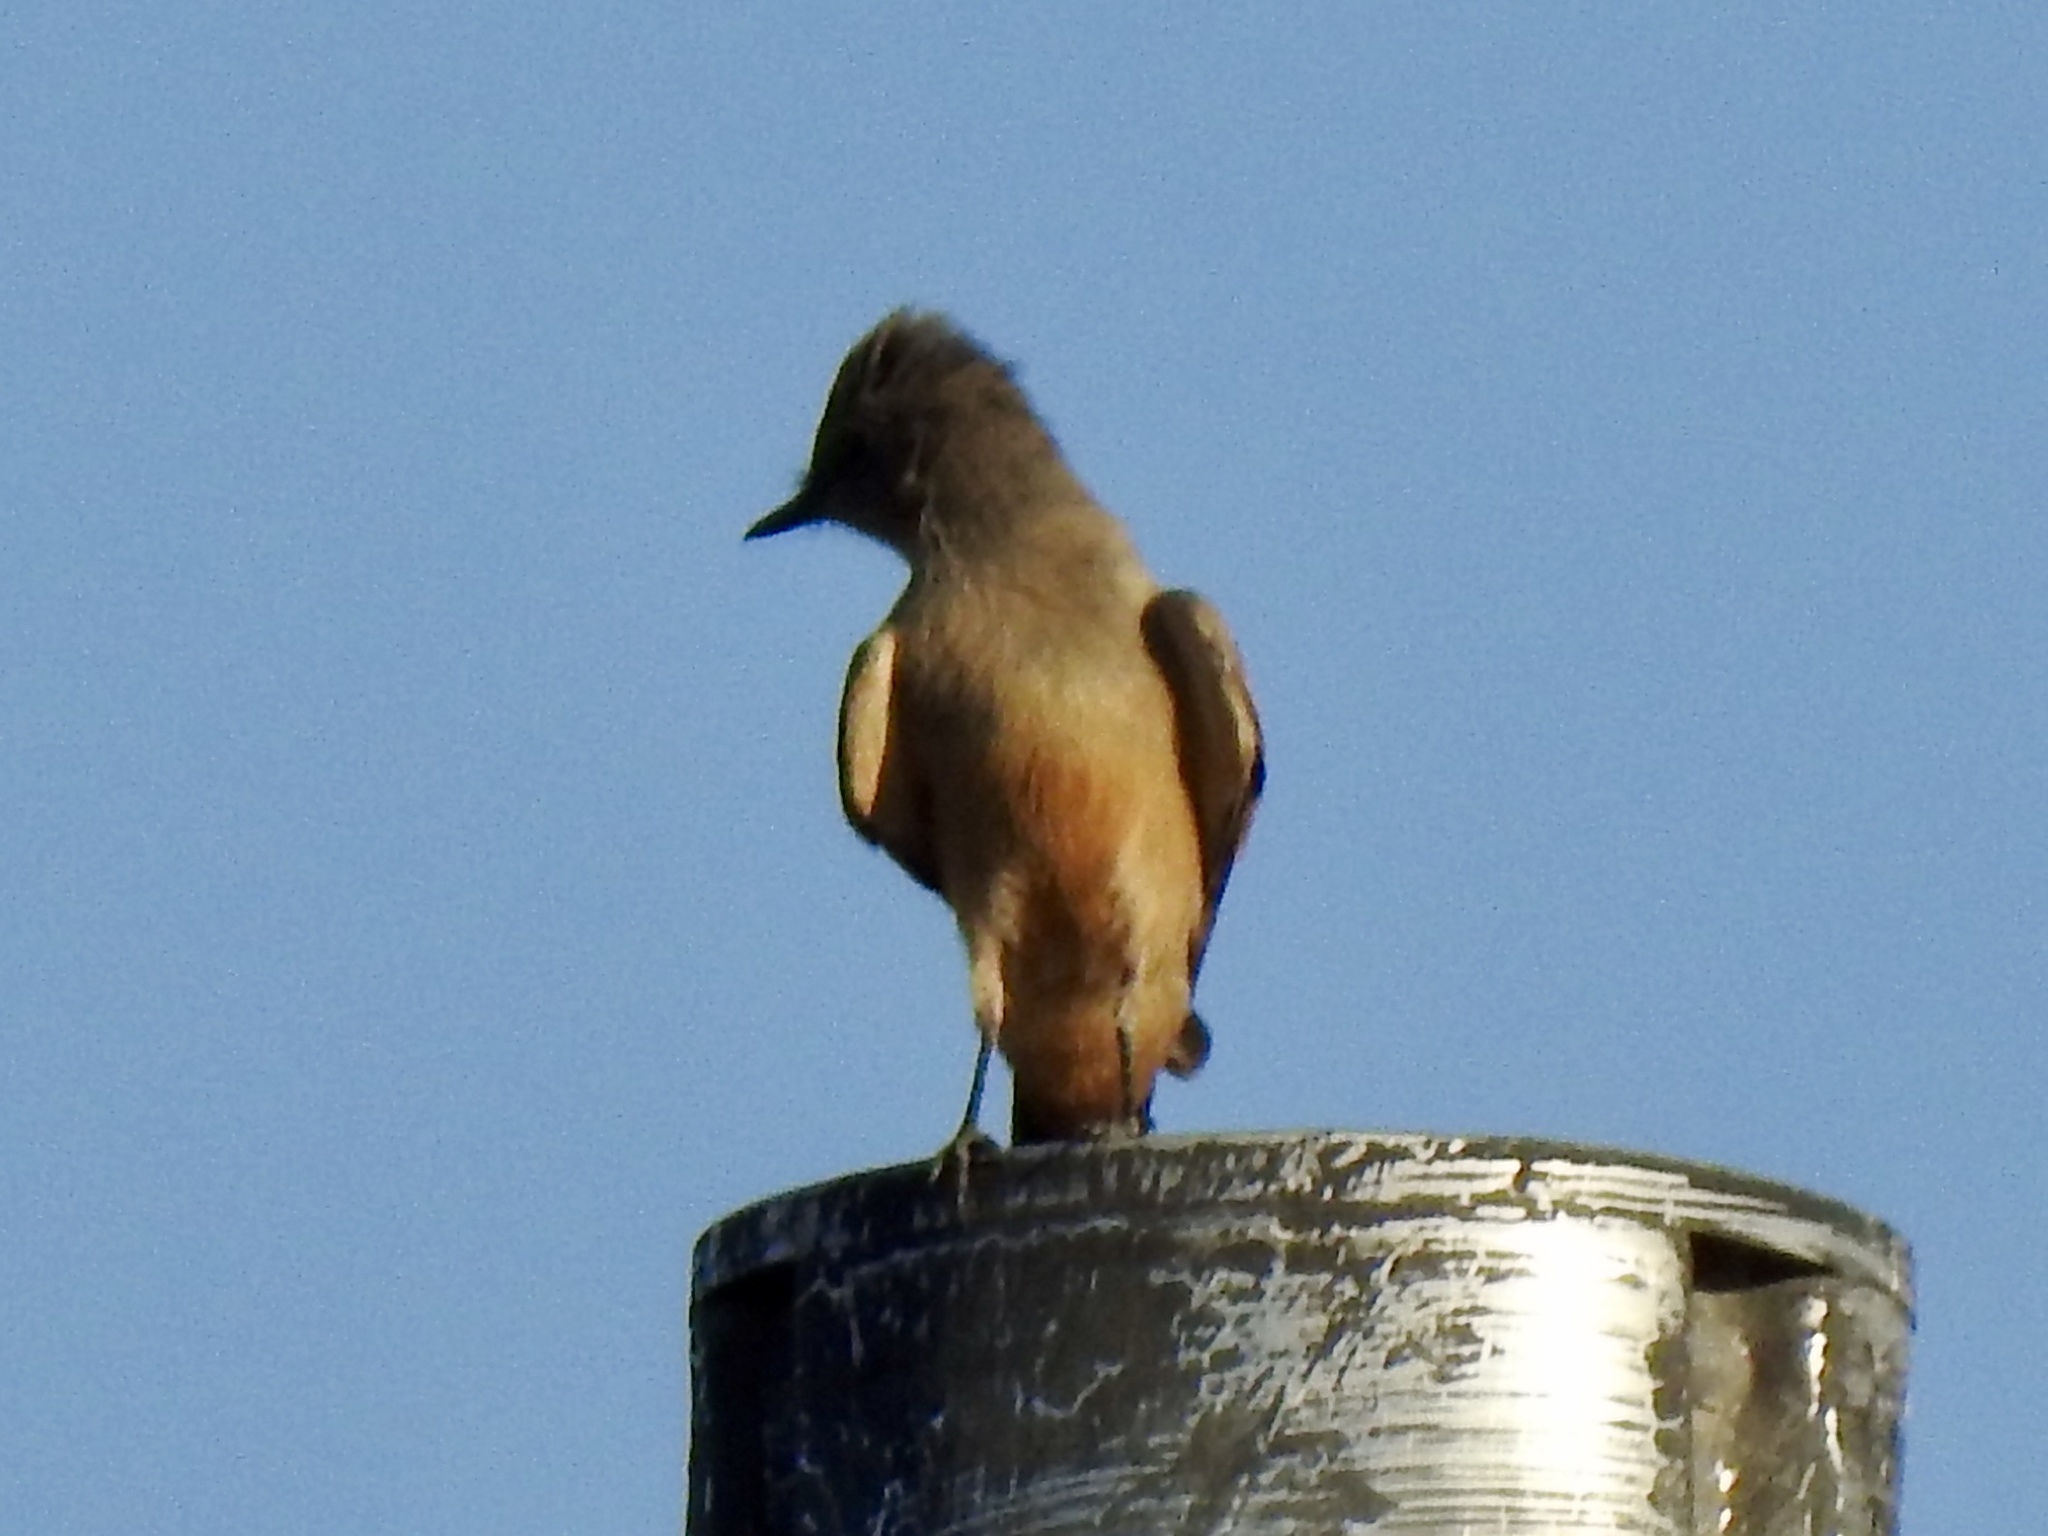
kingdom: Animalia
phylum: Chordata
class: Aves
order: Passeriformes
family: Tyrannidae
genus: Sayornis
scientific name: Sayornis saya
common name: Say's phoebe
